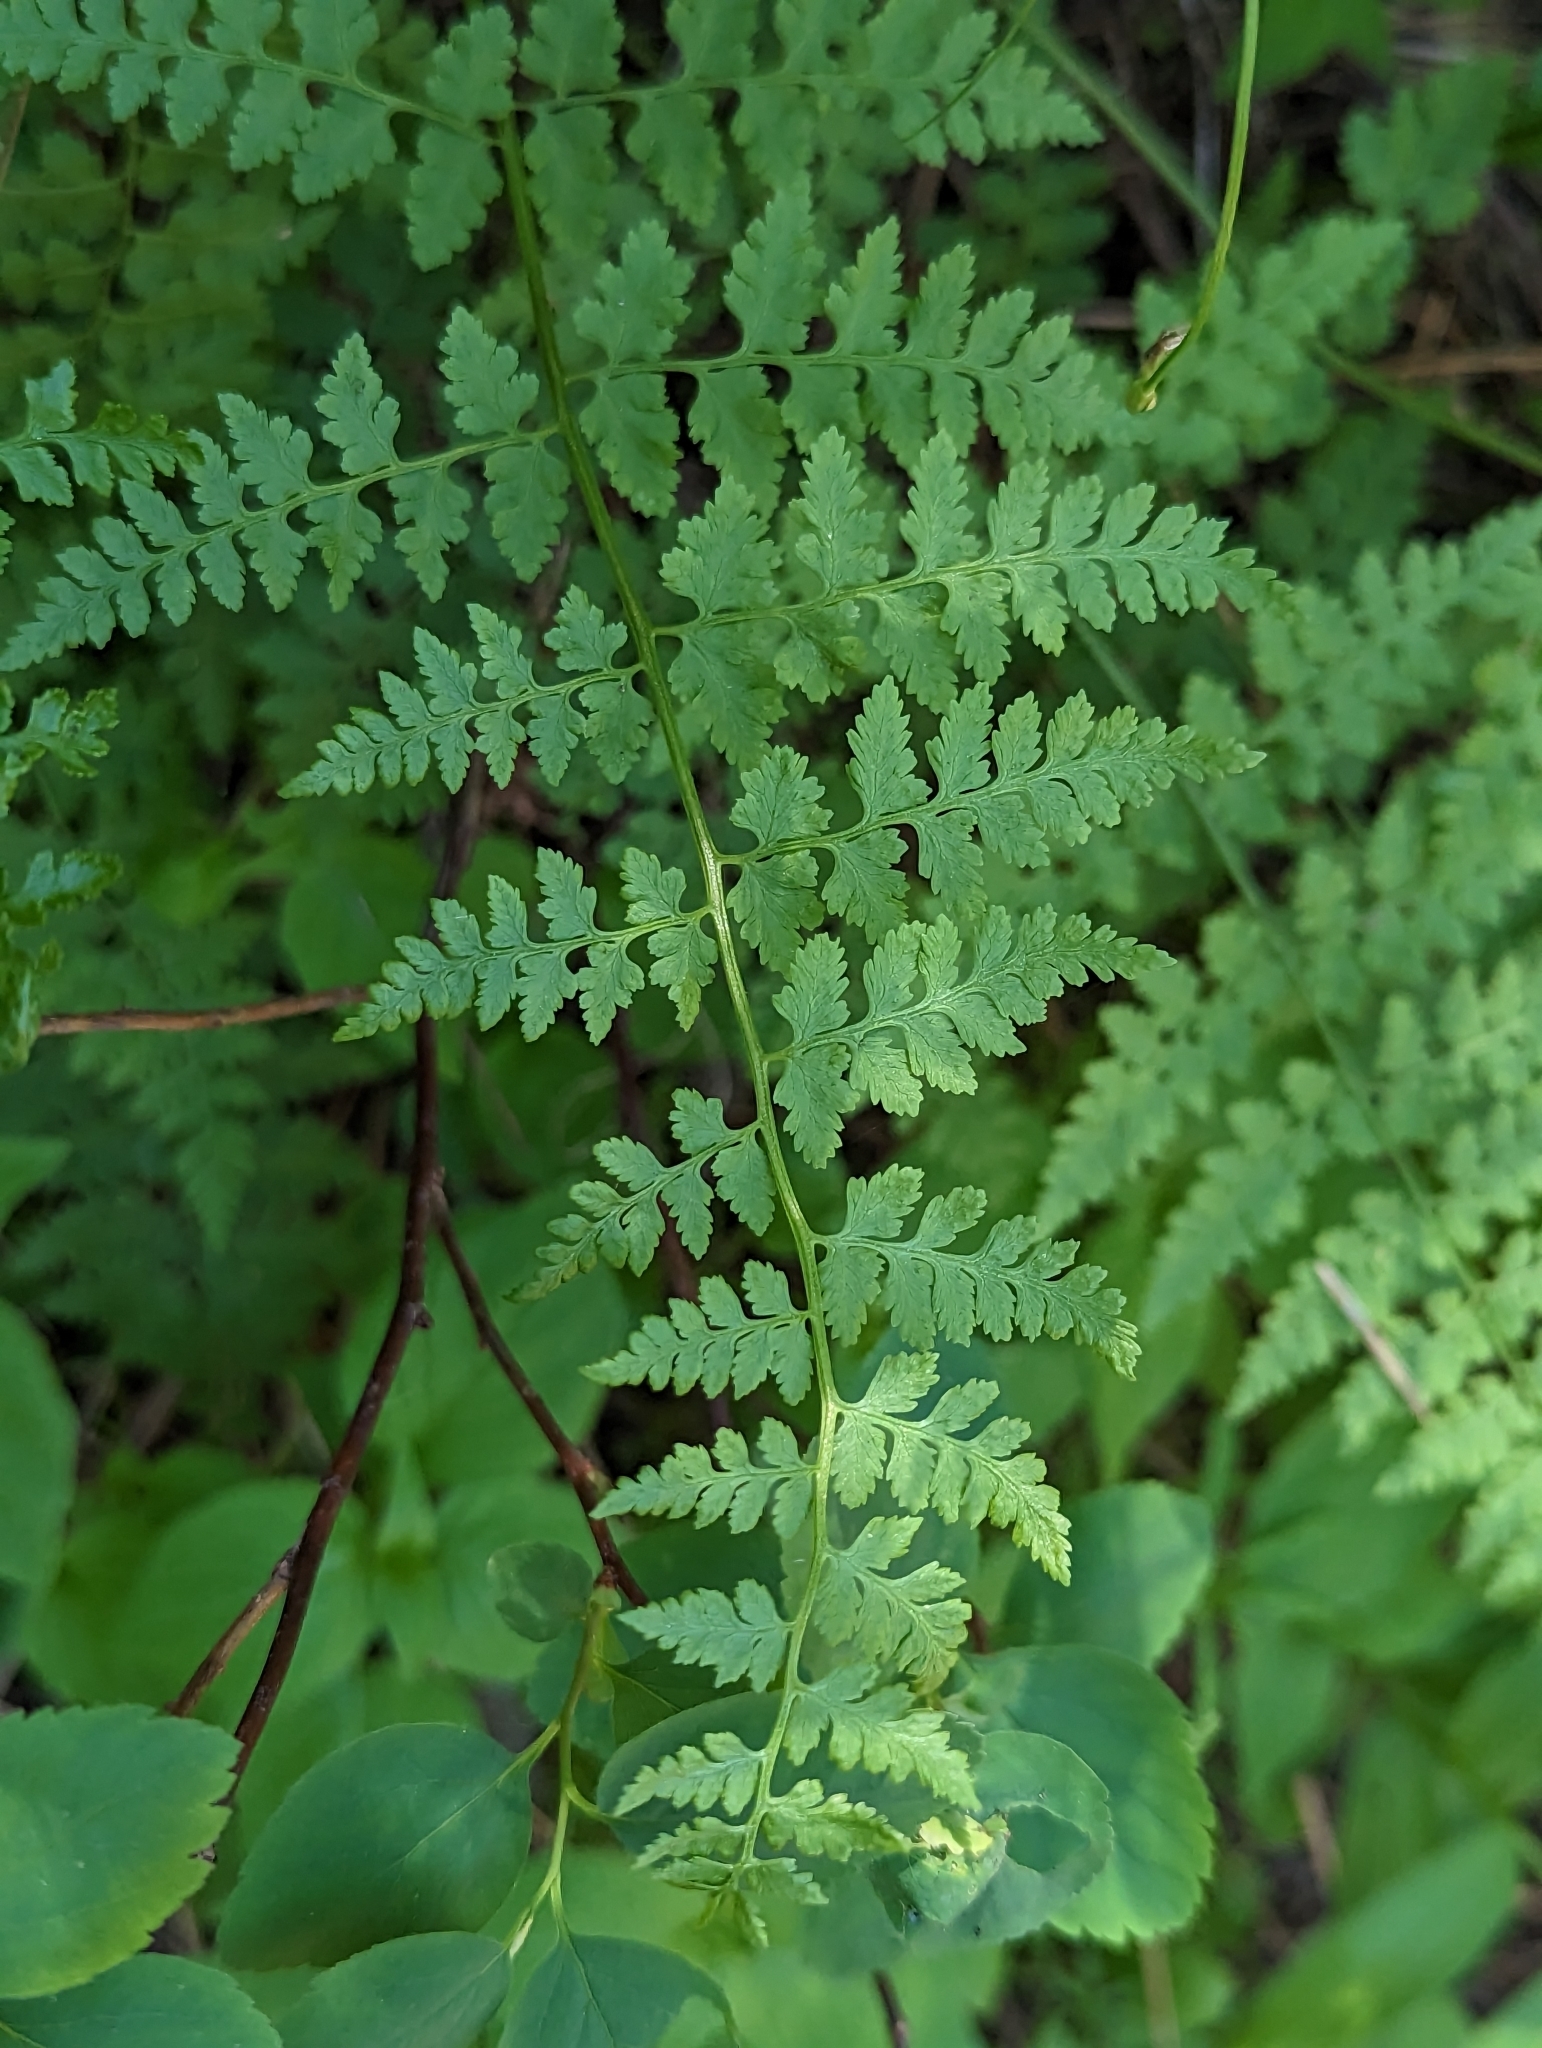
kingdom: Plantae
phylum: Tracheophyta
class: Polypodiopsida
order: Polypodiales
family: Cystopteridaceae
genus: Cystopteris
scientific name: Cystopteris fragilis
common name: Brittle bladder fern
